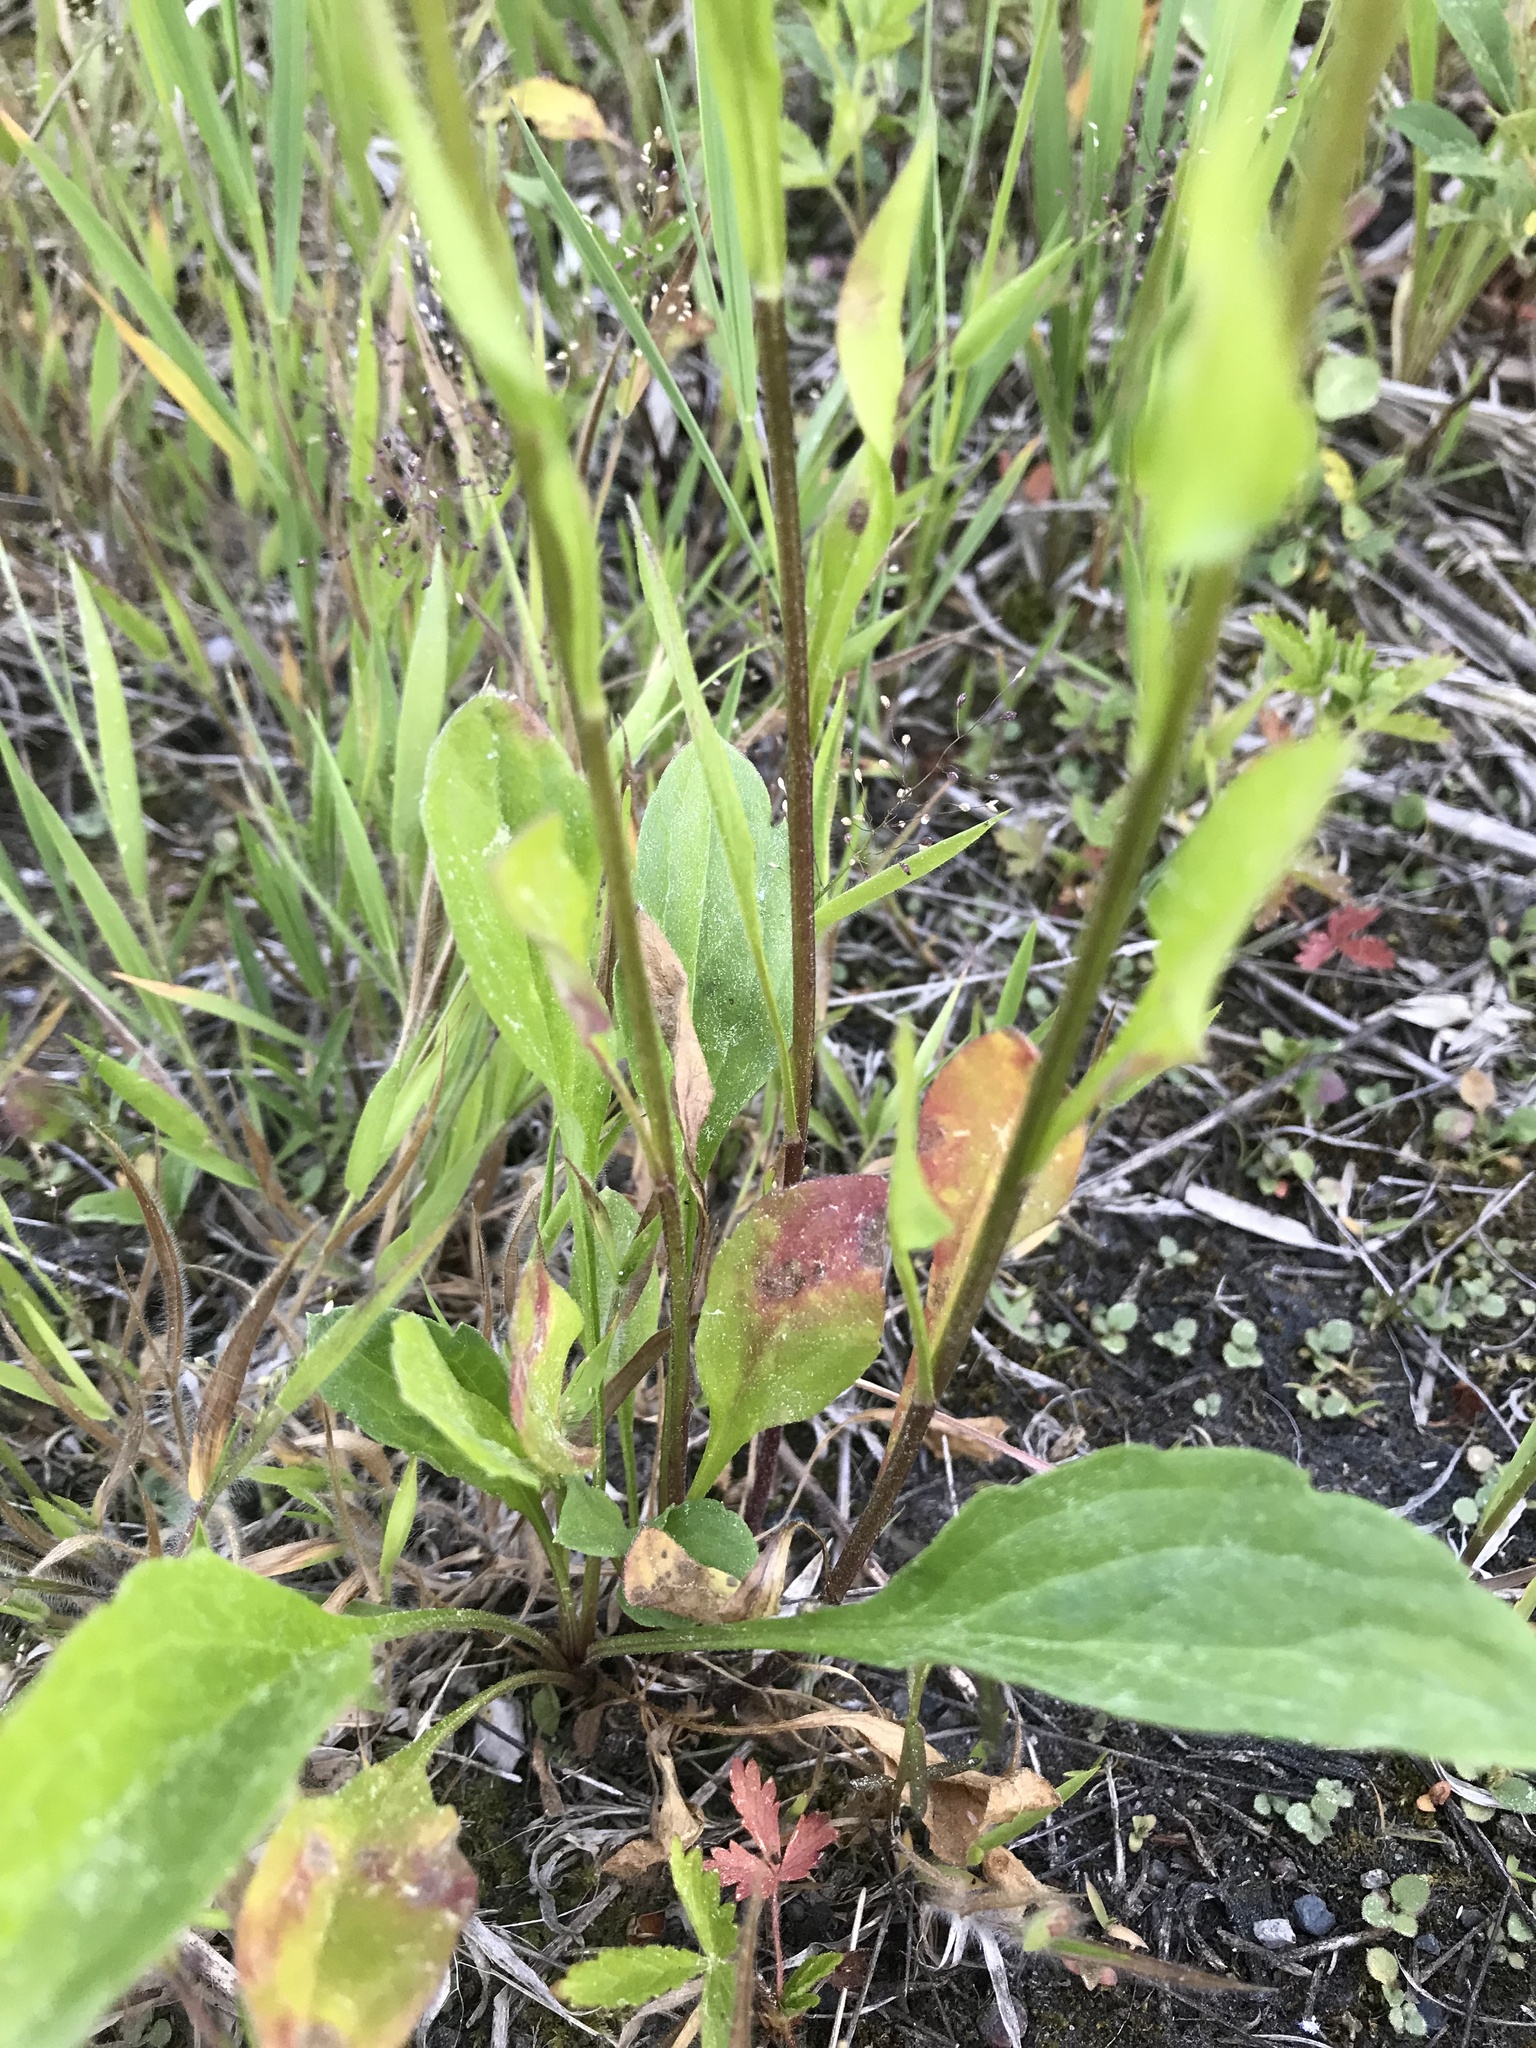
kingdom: Plantae
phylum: Tracheophyta
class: Magnoliopsida
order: Asterales
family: Asteraceae
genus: Erigeron
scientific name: Erigeron strigosus
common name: Common eastern fleabane
